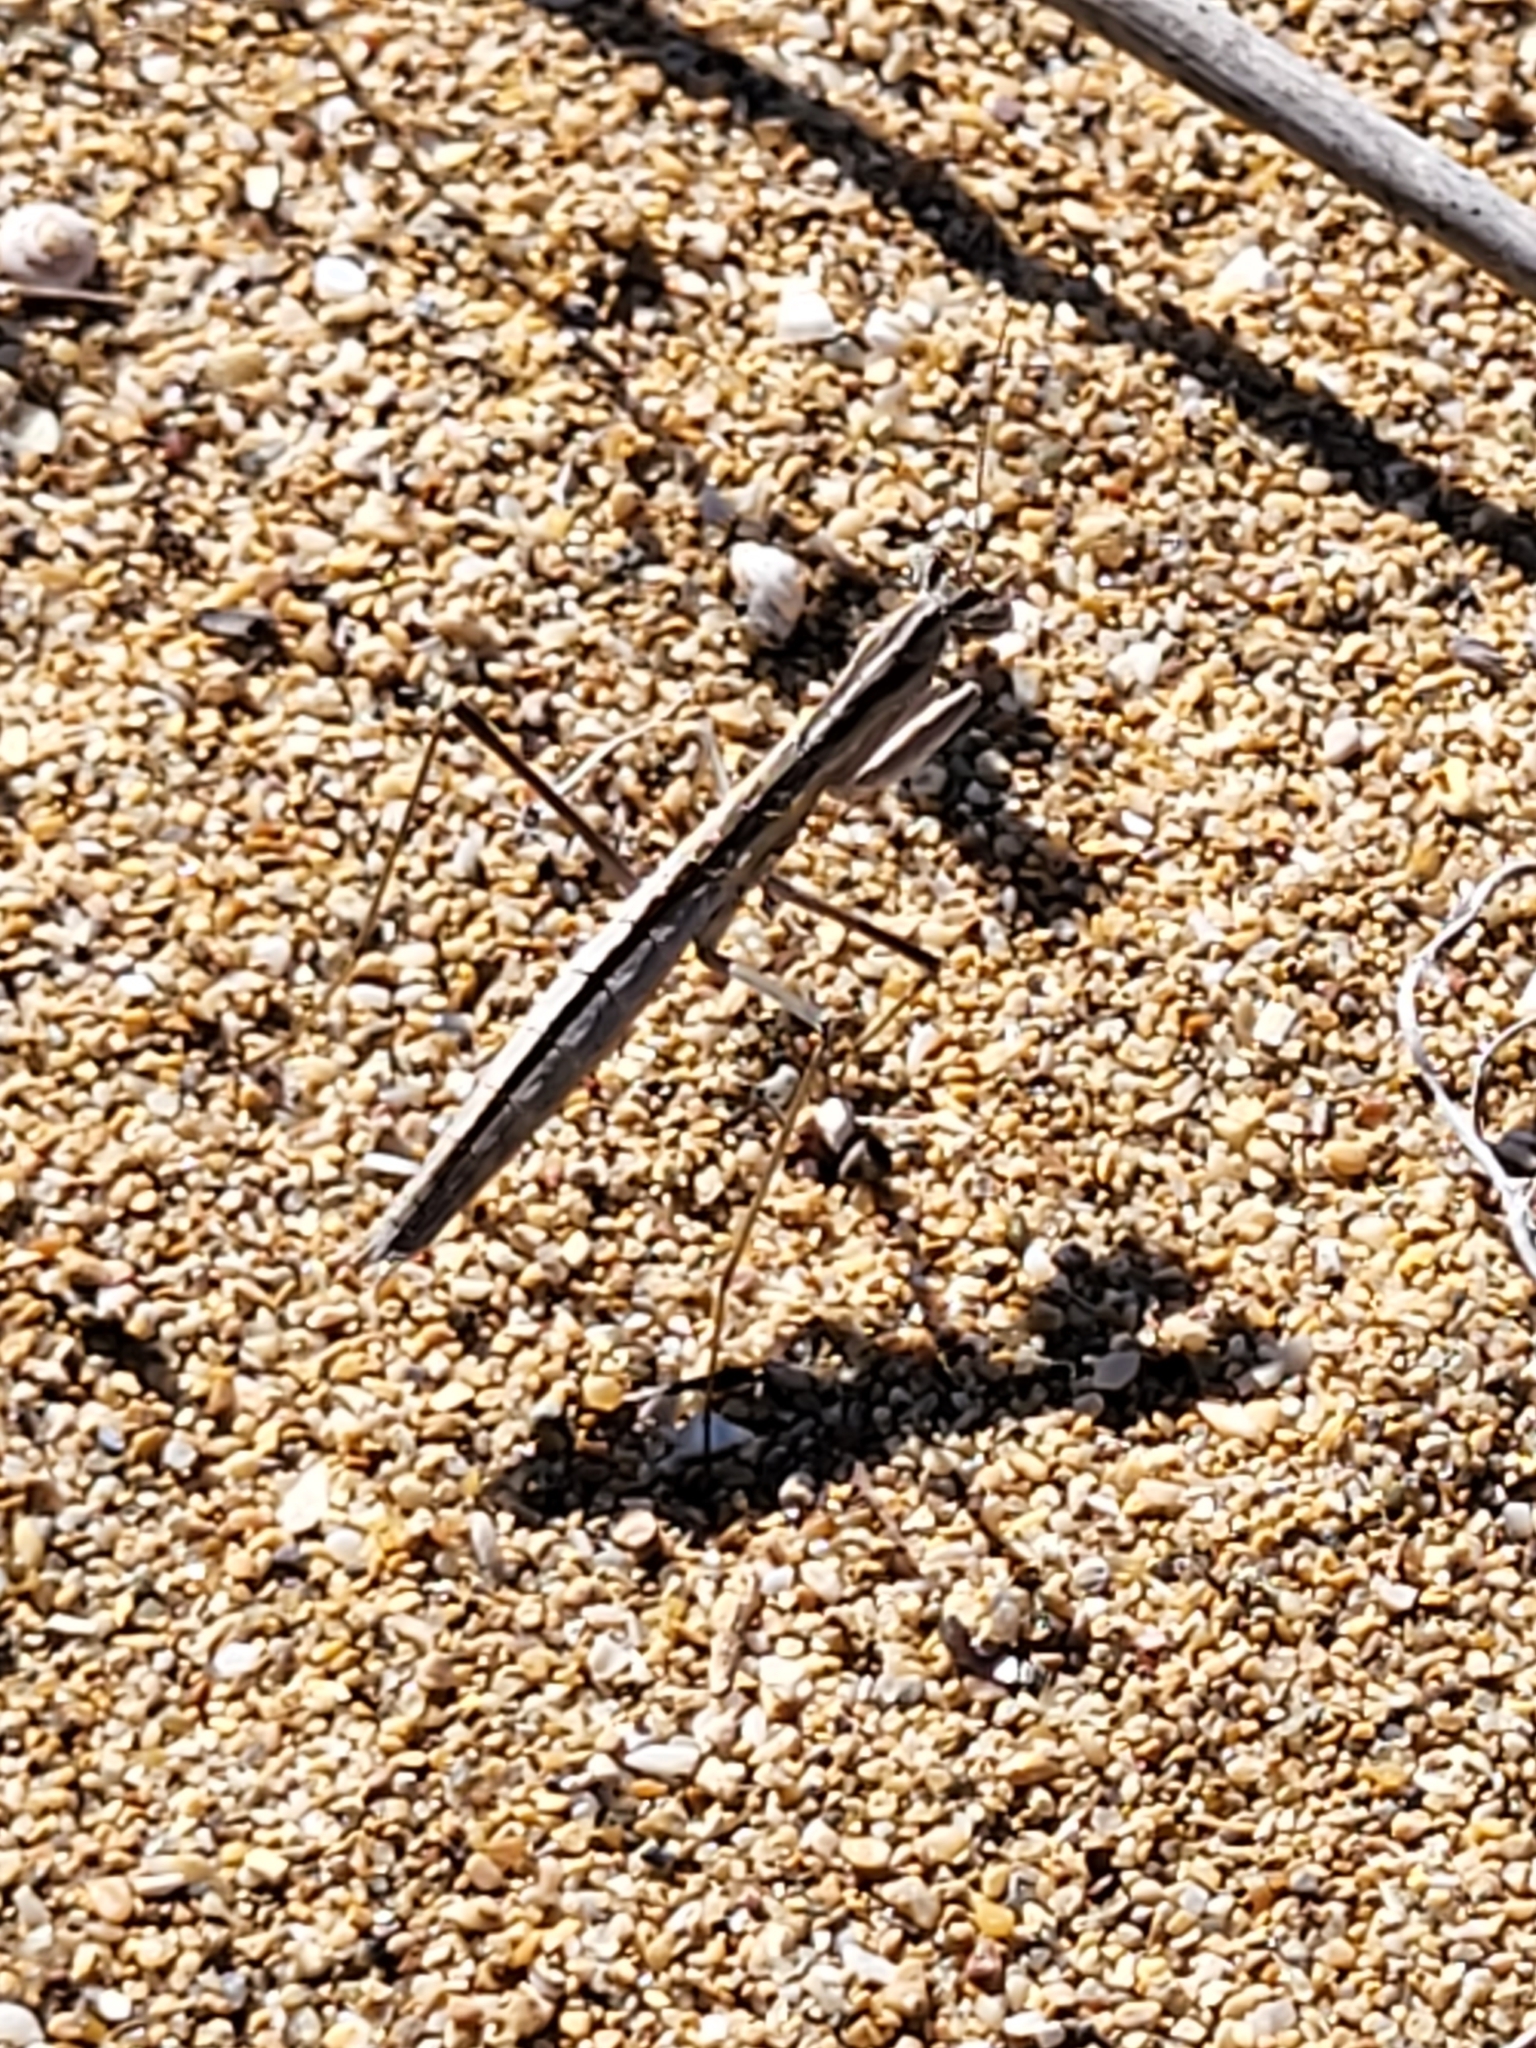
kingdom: Animalia
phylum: Arthropoda
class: Insecta
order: Mantodea
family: Rivetinidae
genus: Rivetina
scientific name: Rivetina balcanica
